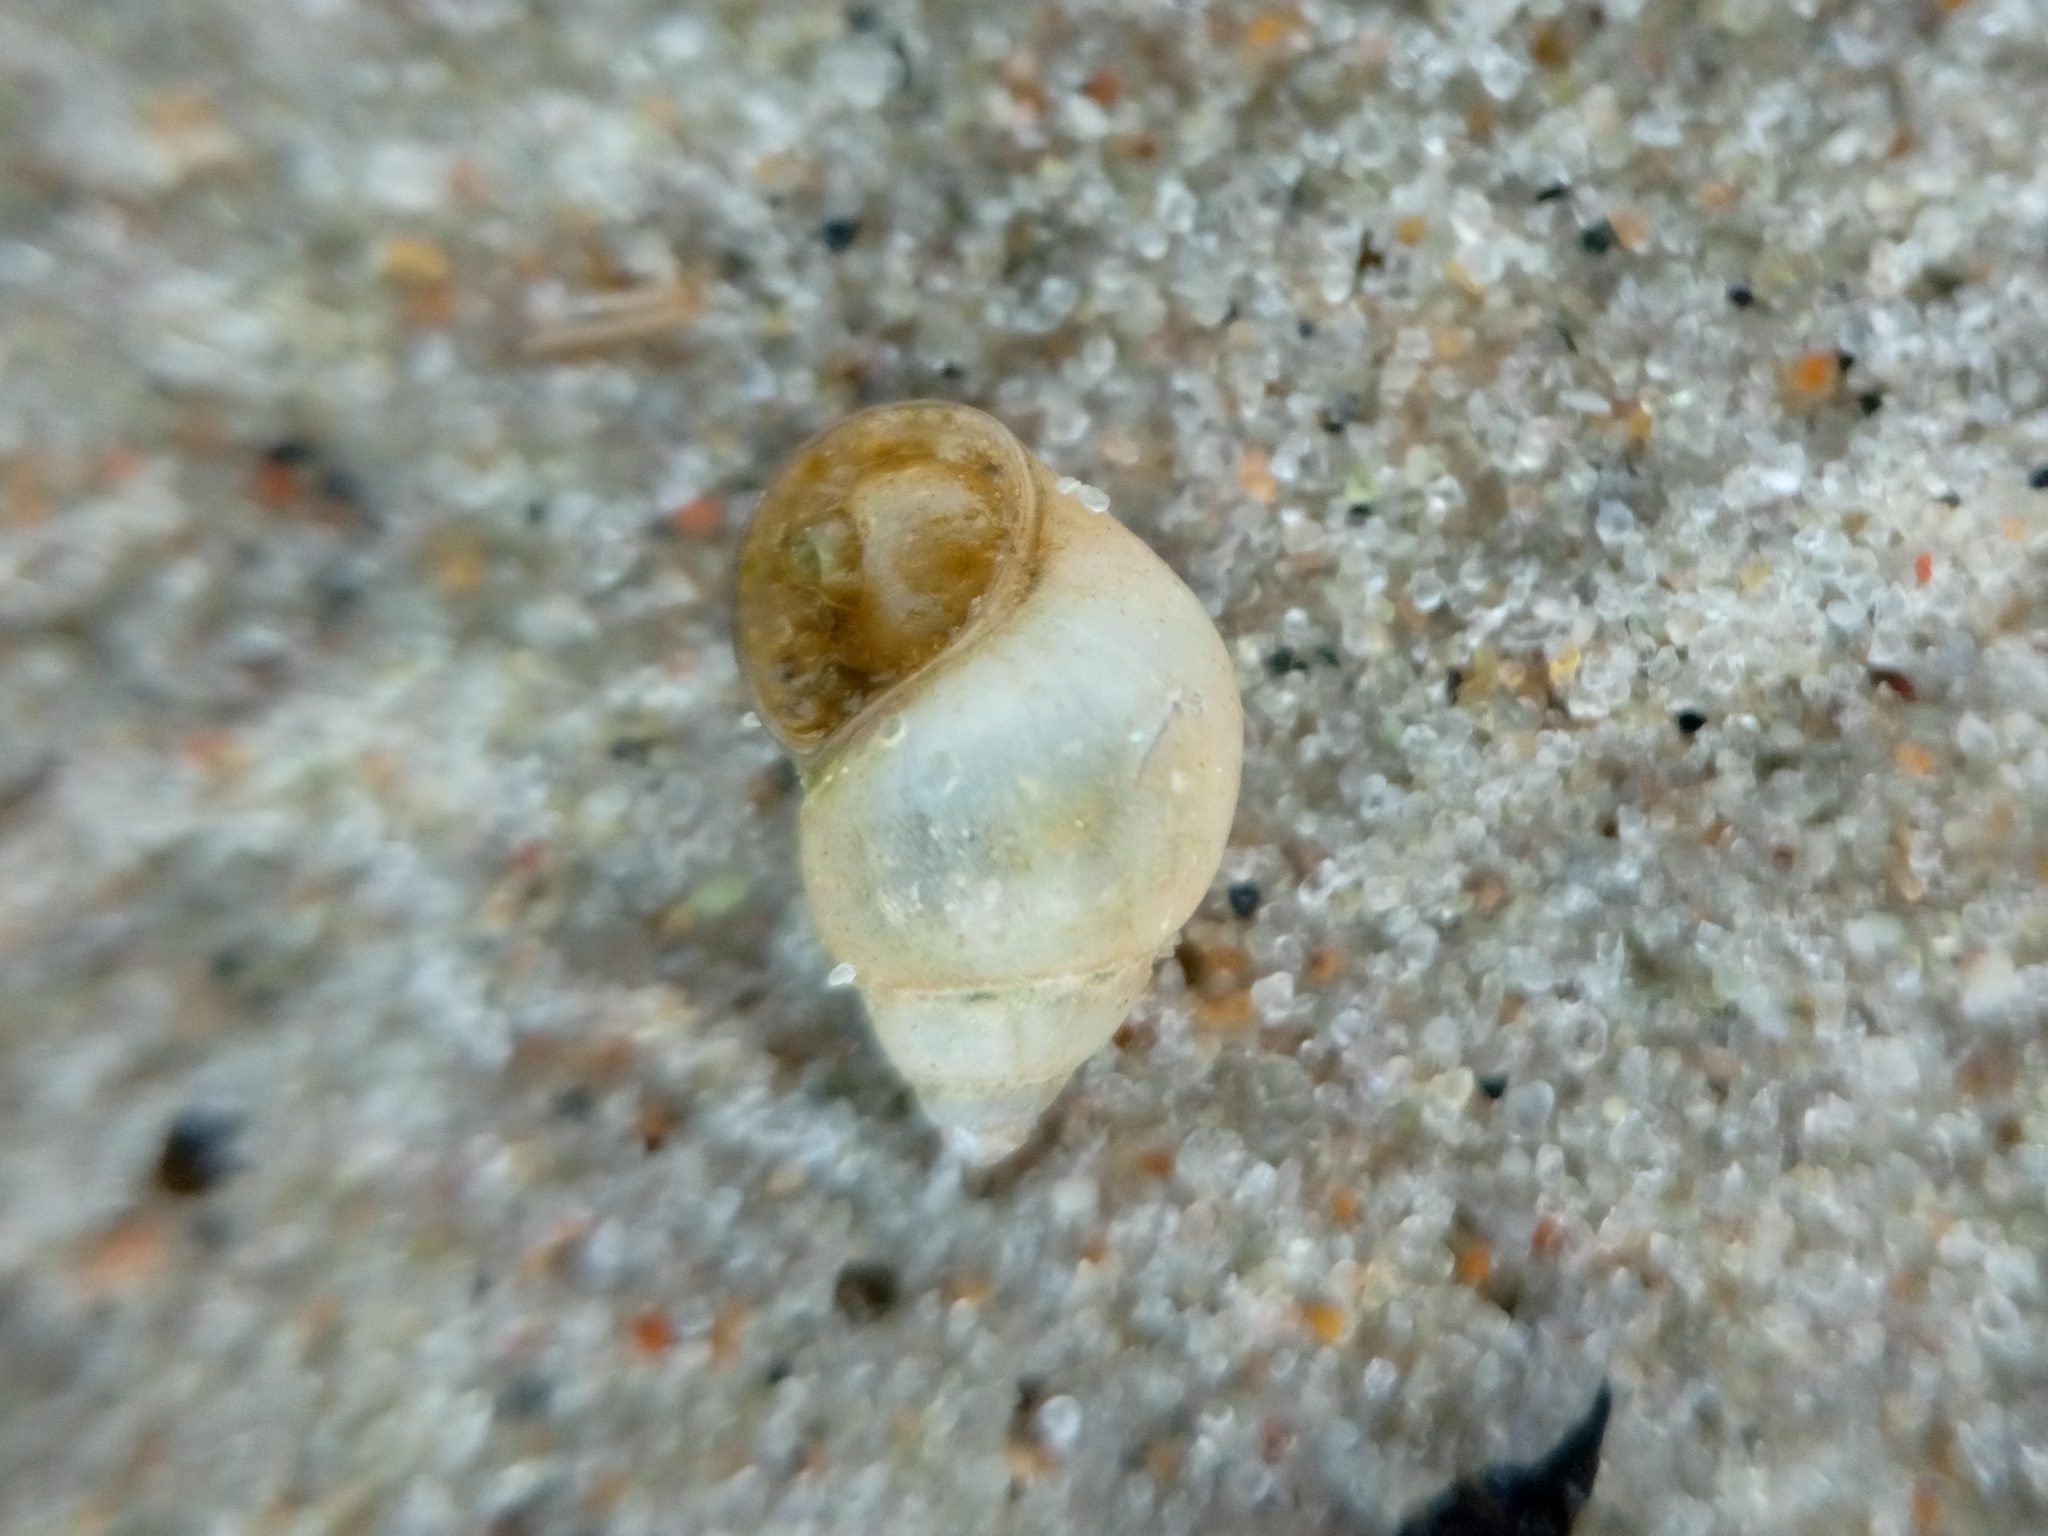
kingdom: Animalia
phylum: Mollusca
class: Gastropoda
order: Littorinimorpha
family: Bithyniidae
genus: Bithynia
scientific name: Bithynia tentaculata
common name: Common bithynia
